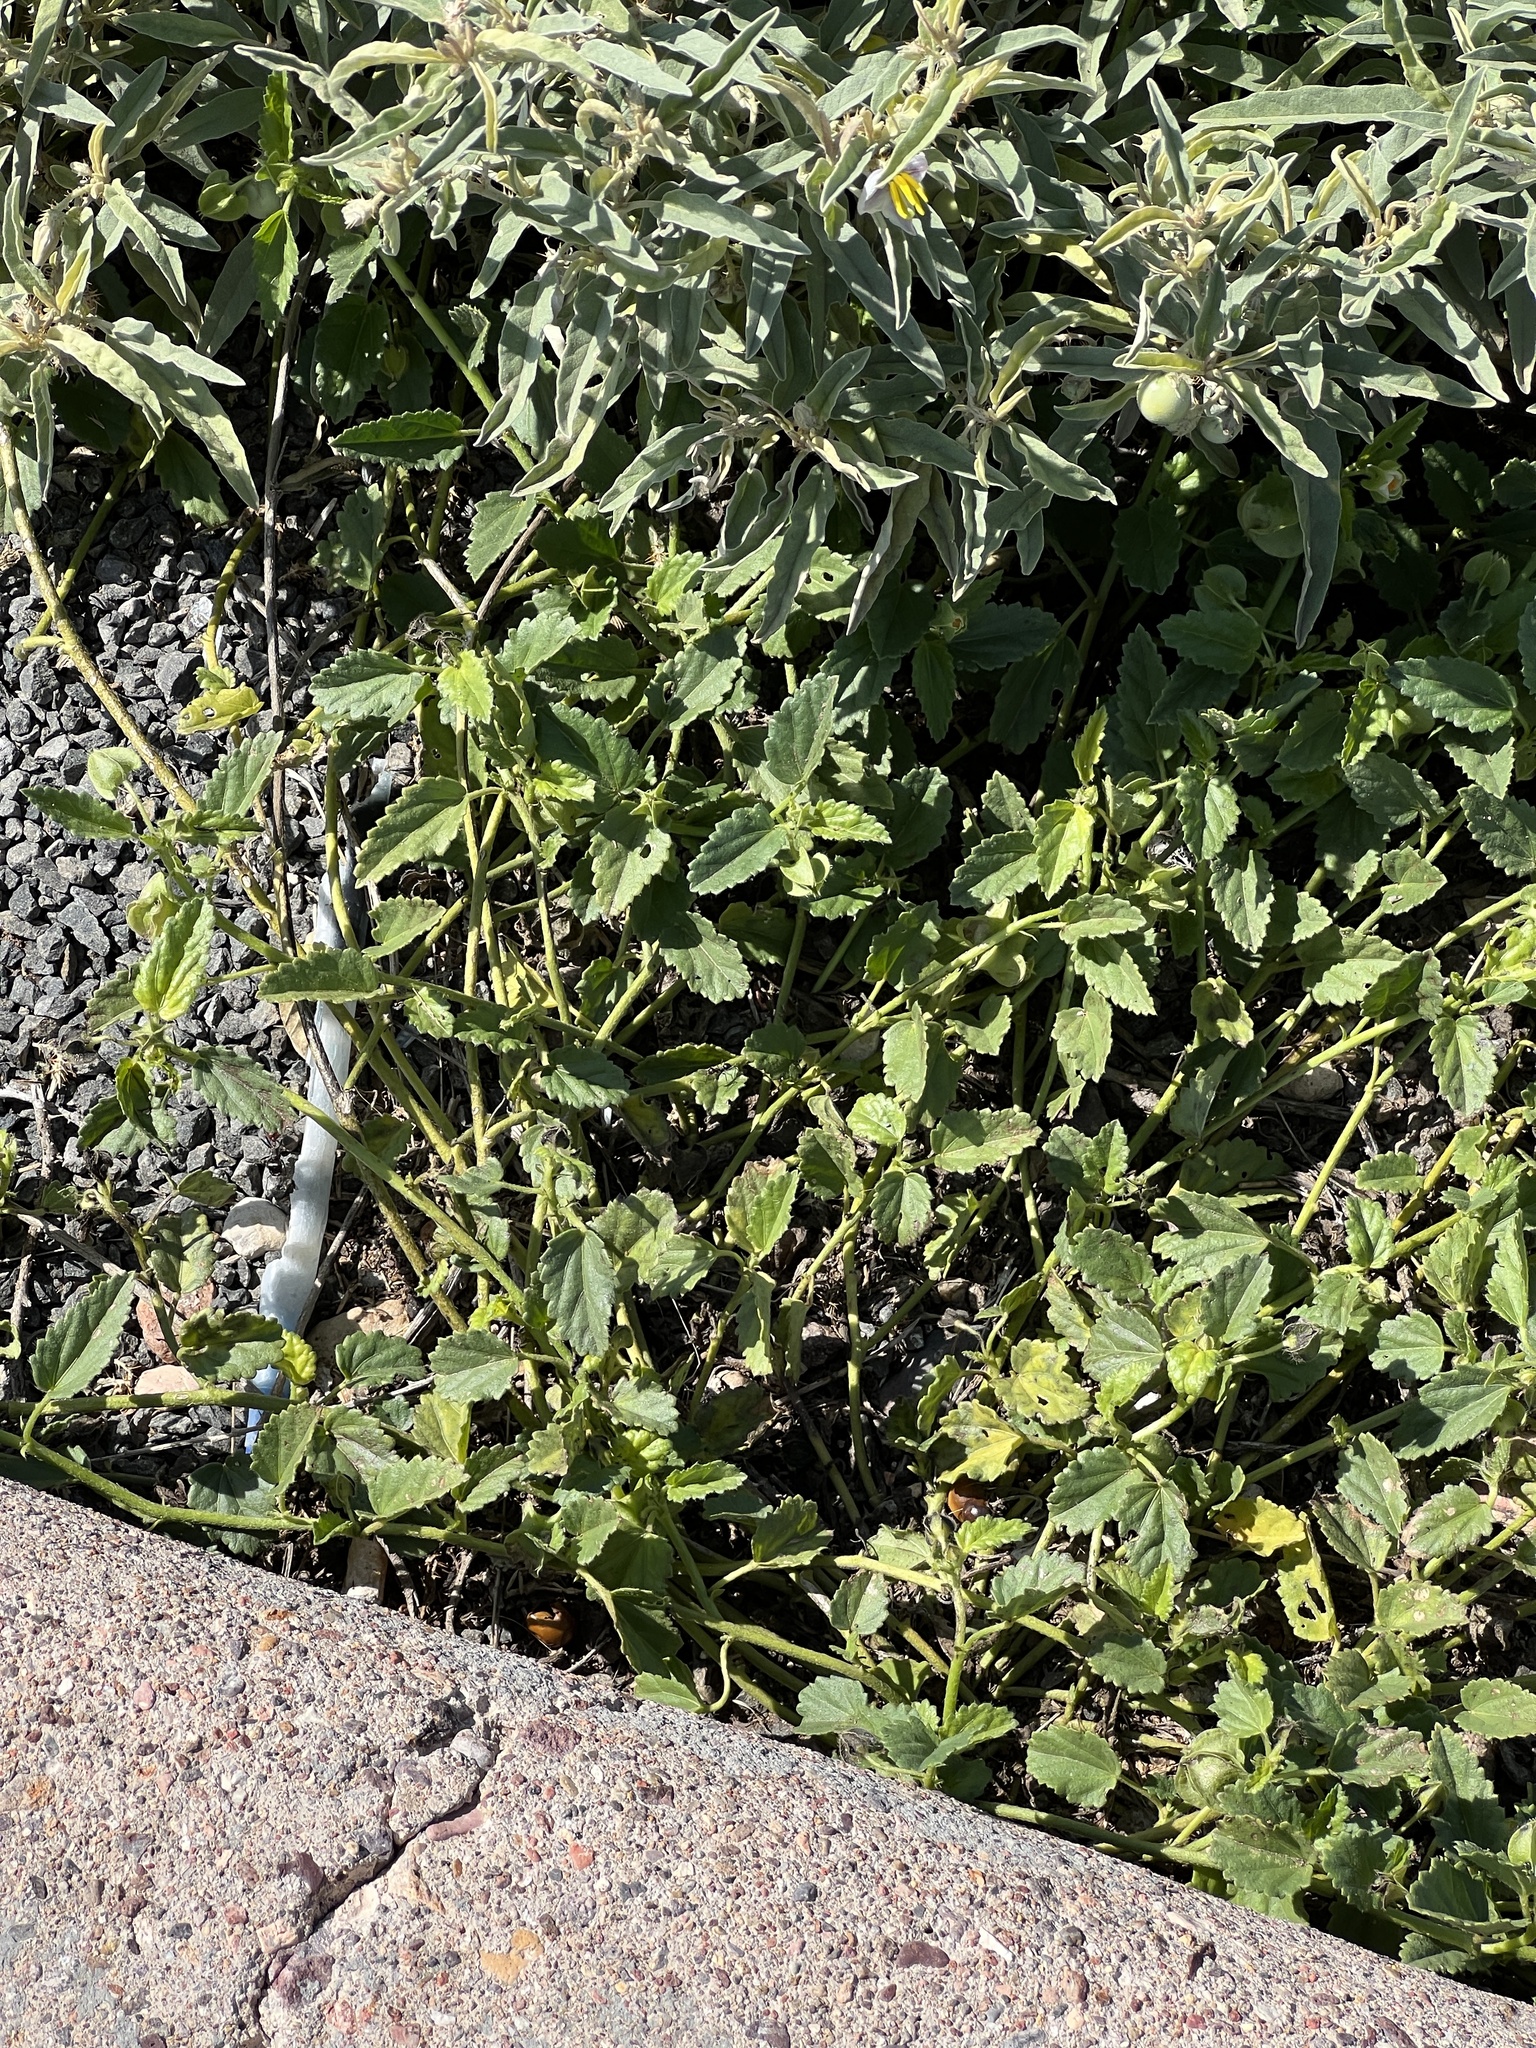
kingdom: Plantae
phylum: Tracheophyta
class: Magnoliopsida
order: Malvales
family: Malvaceae
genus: Rhynchosida
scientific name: Rhynchosida physocalyx
